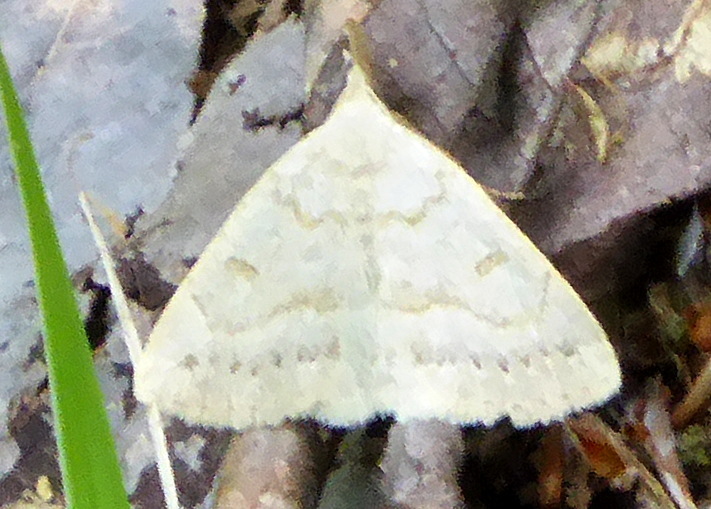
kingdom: Animalia
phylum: Arthropoda
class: Insecta
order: Lepidoptera
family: Erebidae
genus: Macrochilo
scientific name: Macrochilo morbidalis
